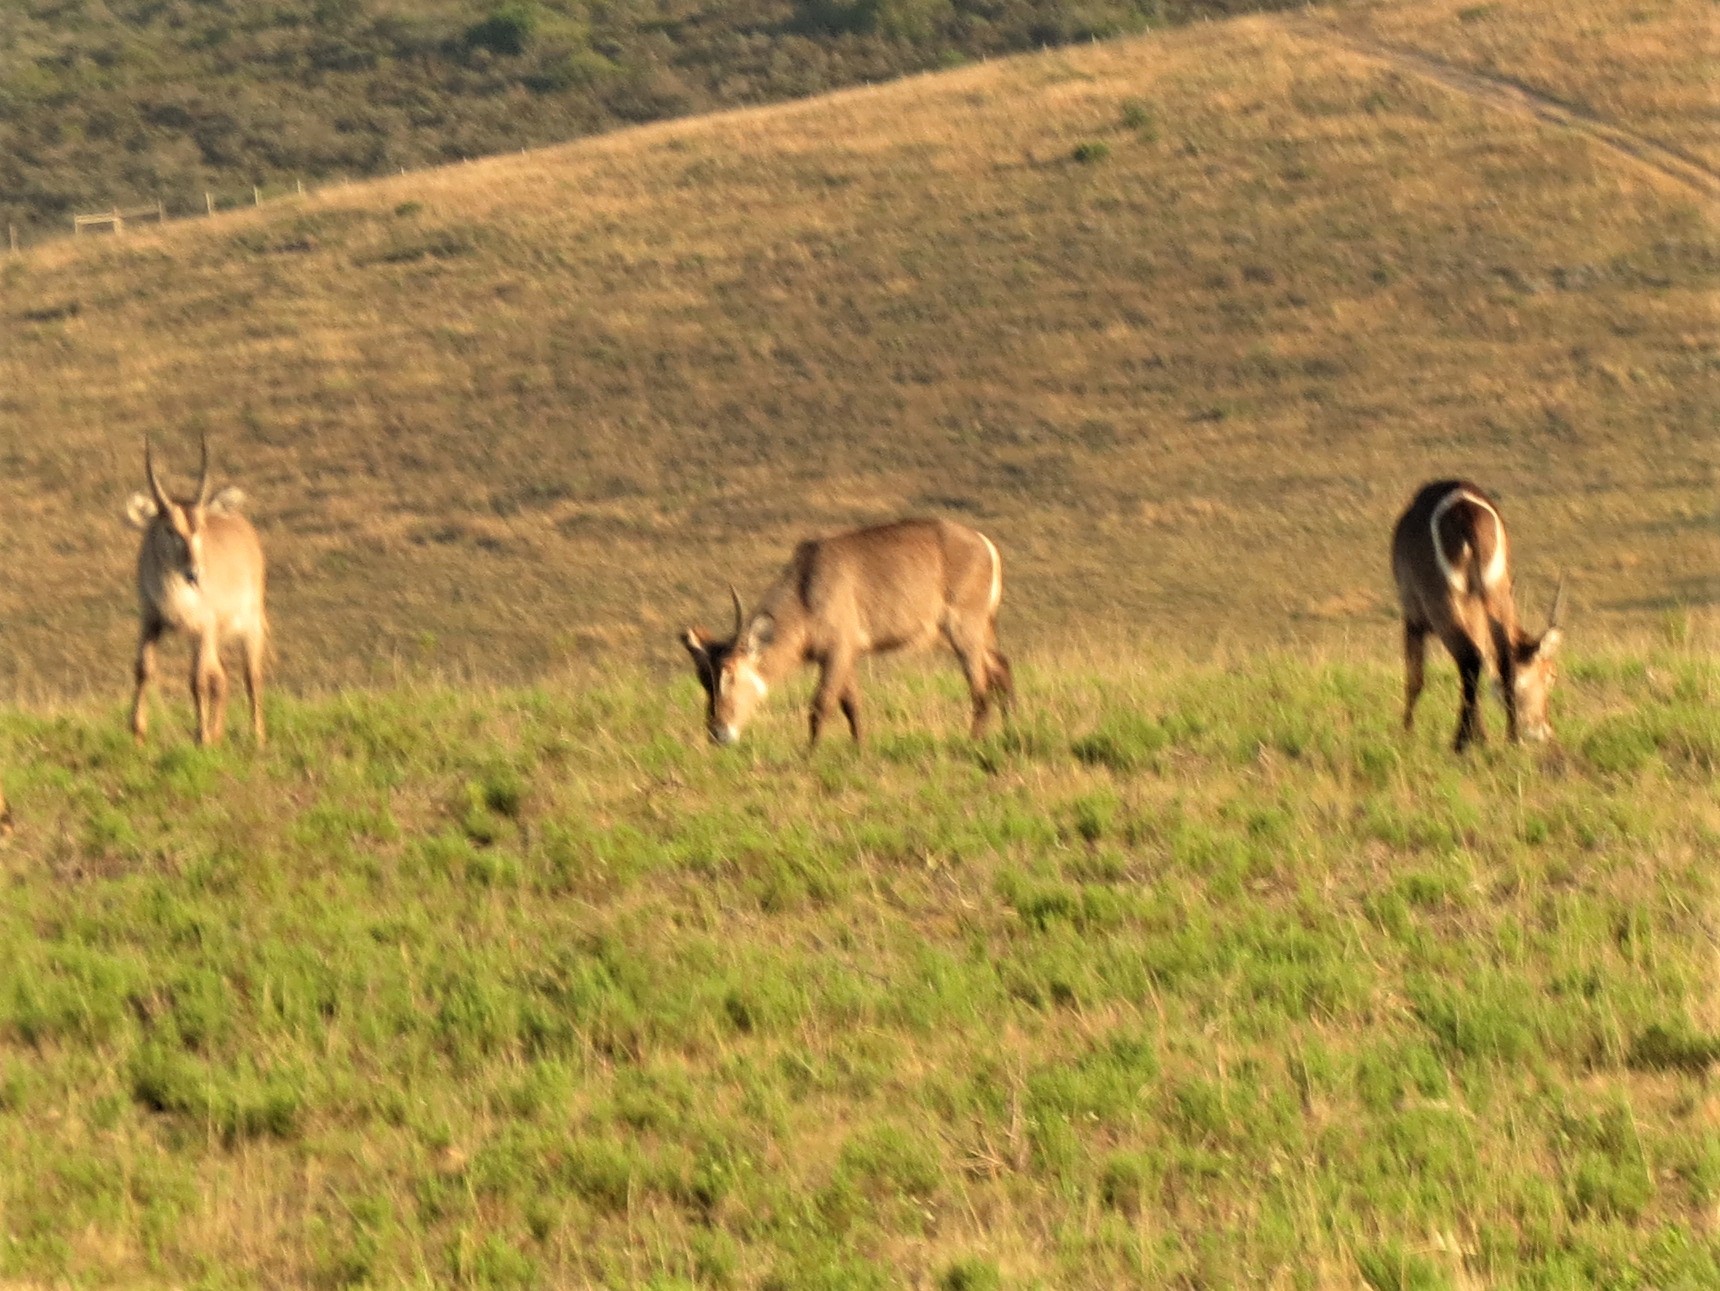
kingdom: Animalia
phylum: Chordata
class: Mammalia
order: Artiodactyla
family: Bovidae
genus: Kobus
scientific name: Kobus ellipsiprymnus
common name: Waterbuck
